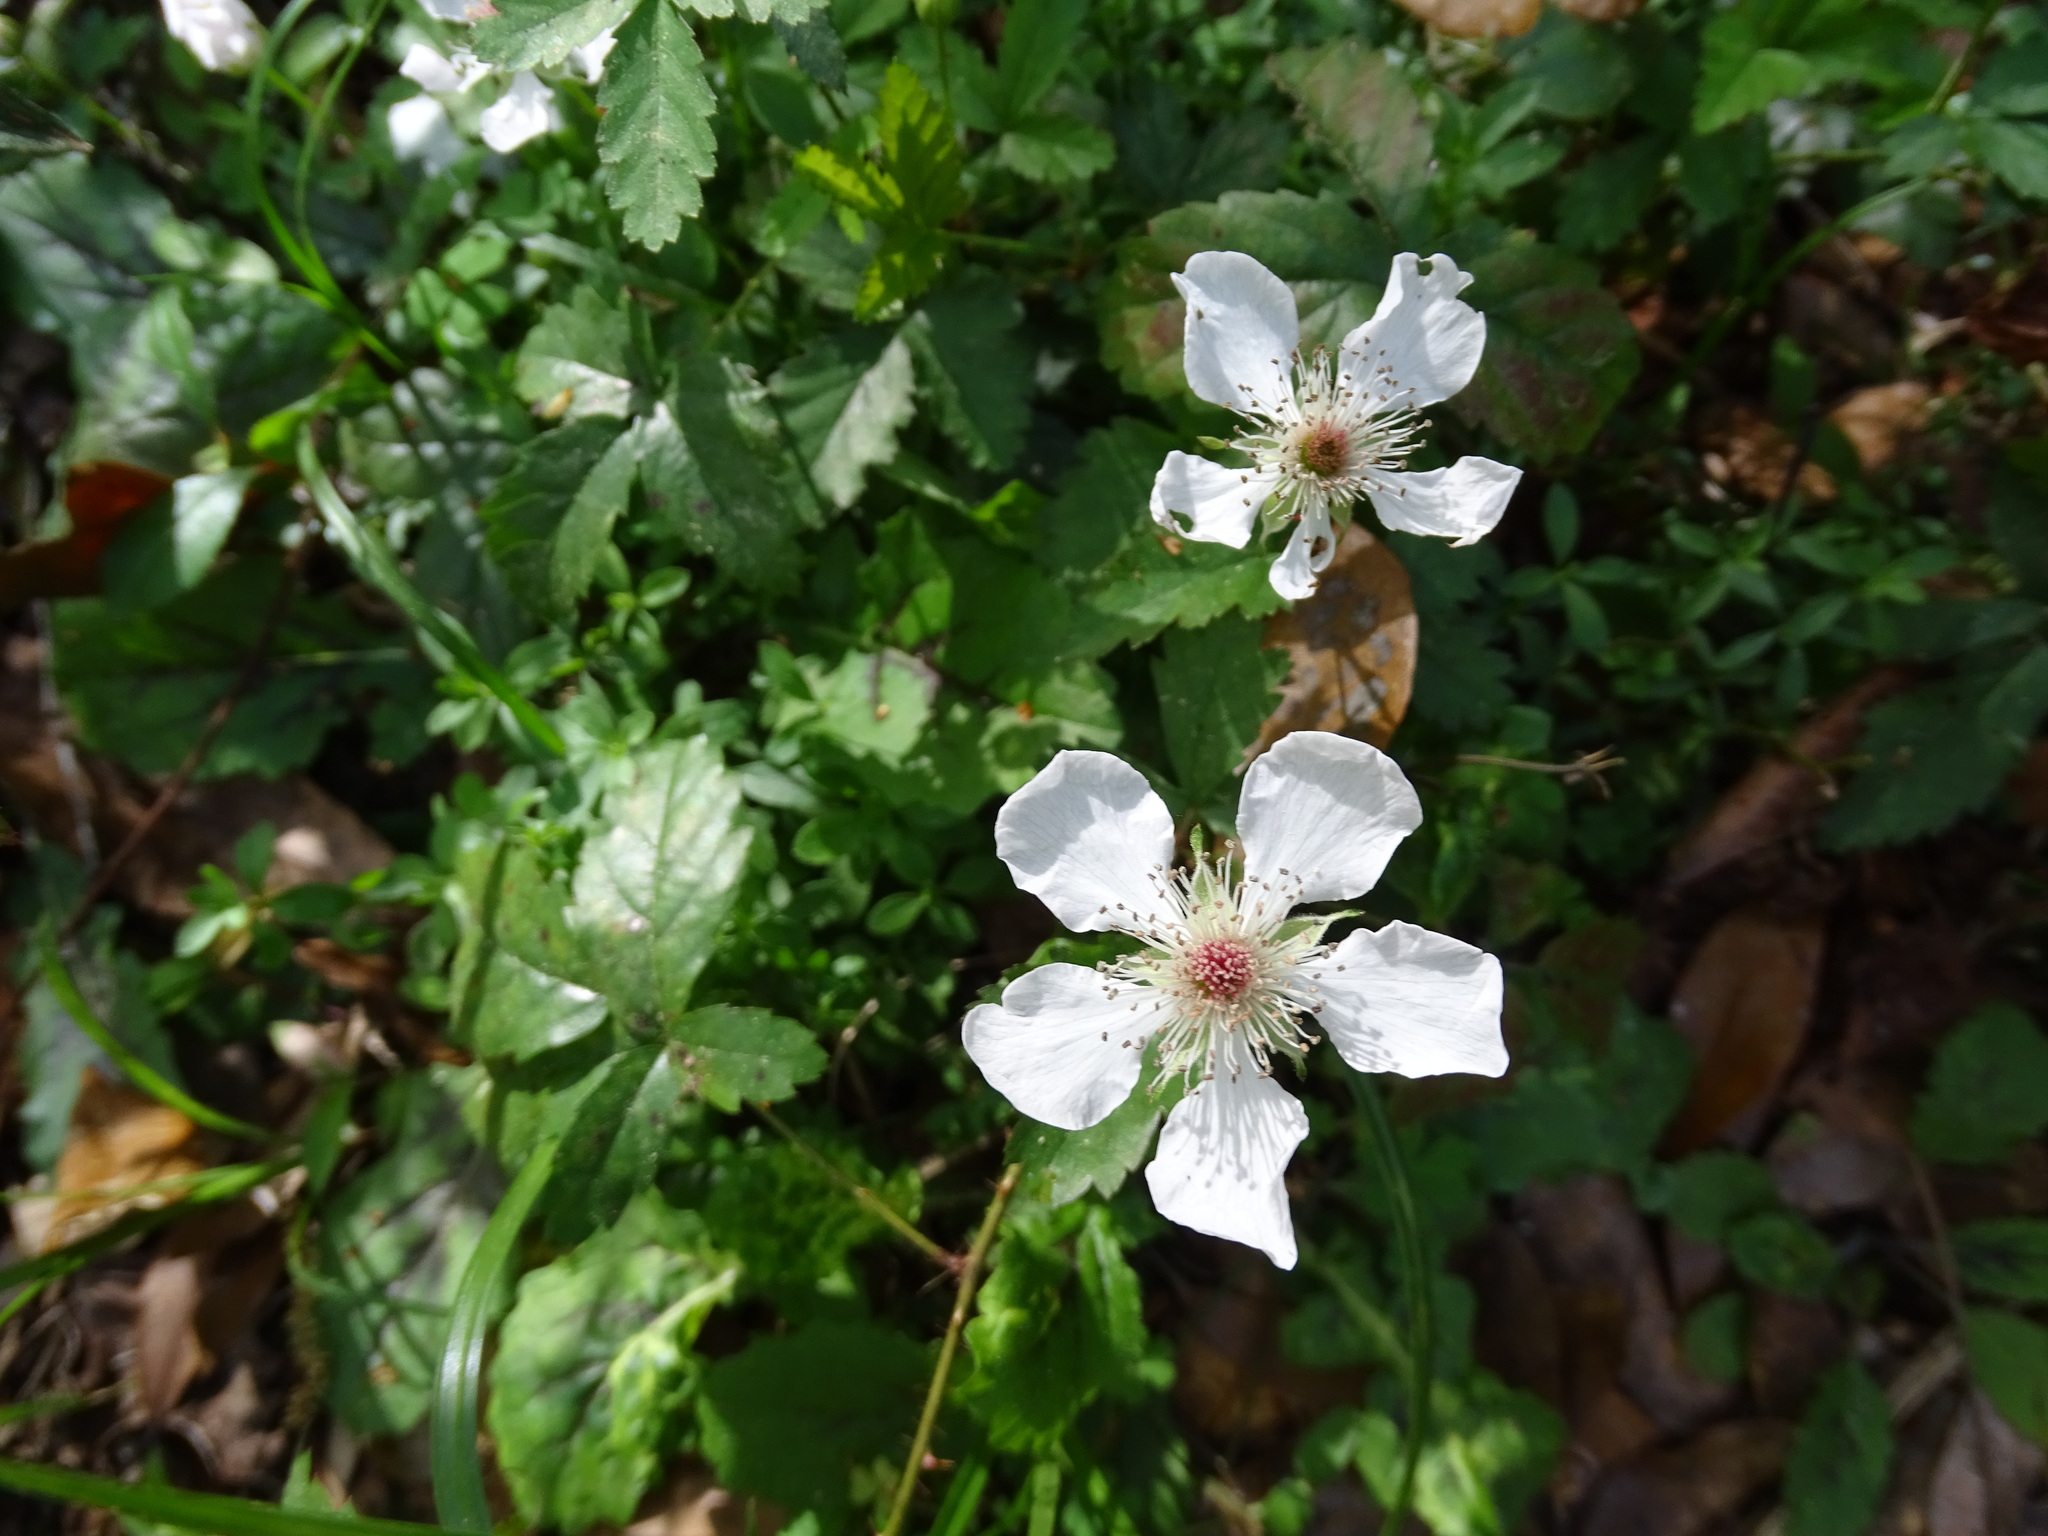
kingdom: Plantae
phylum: Tracheophyta
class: Magnoliopsida
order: Rosales
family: Rosaceae
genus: Rubus
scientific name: Rubus trivialis
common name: Southern dewberry
